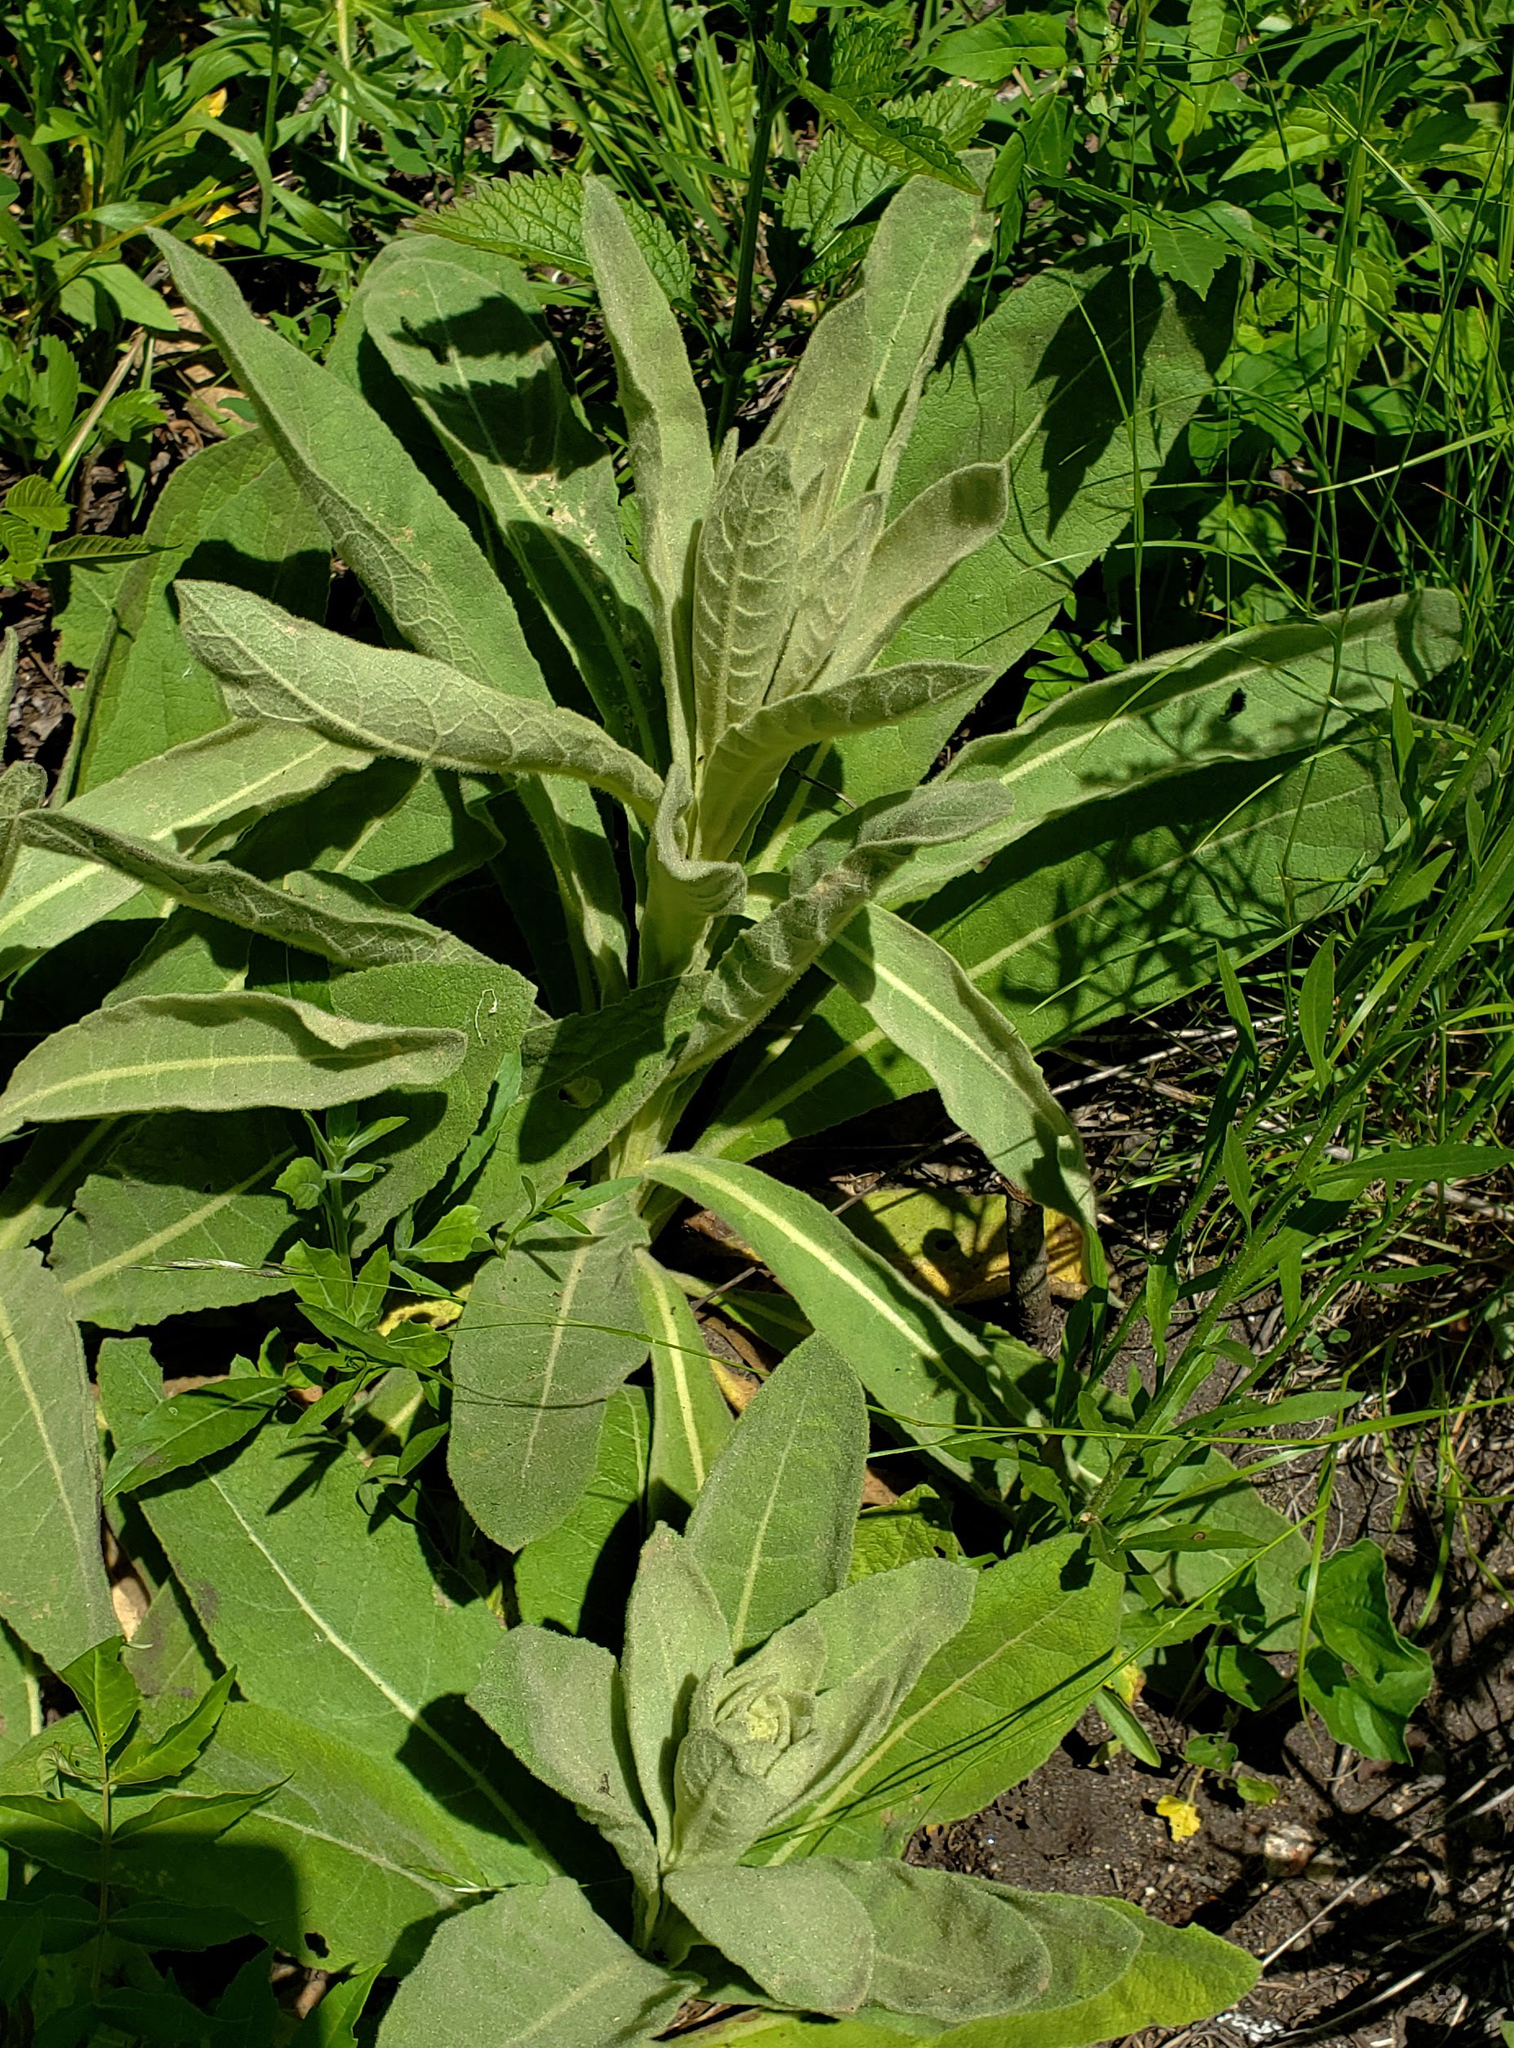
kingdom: Plantae
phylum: Tracheophyta
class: Magnoliopsida
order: Lamiales
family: Scrophulariaceae
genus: Verbascum
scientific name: Verbascum thapsus
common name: Common mullein
